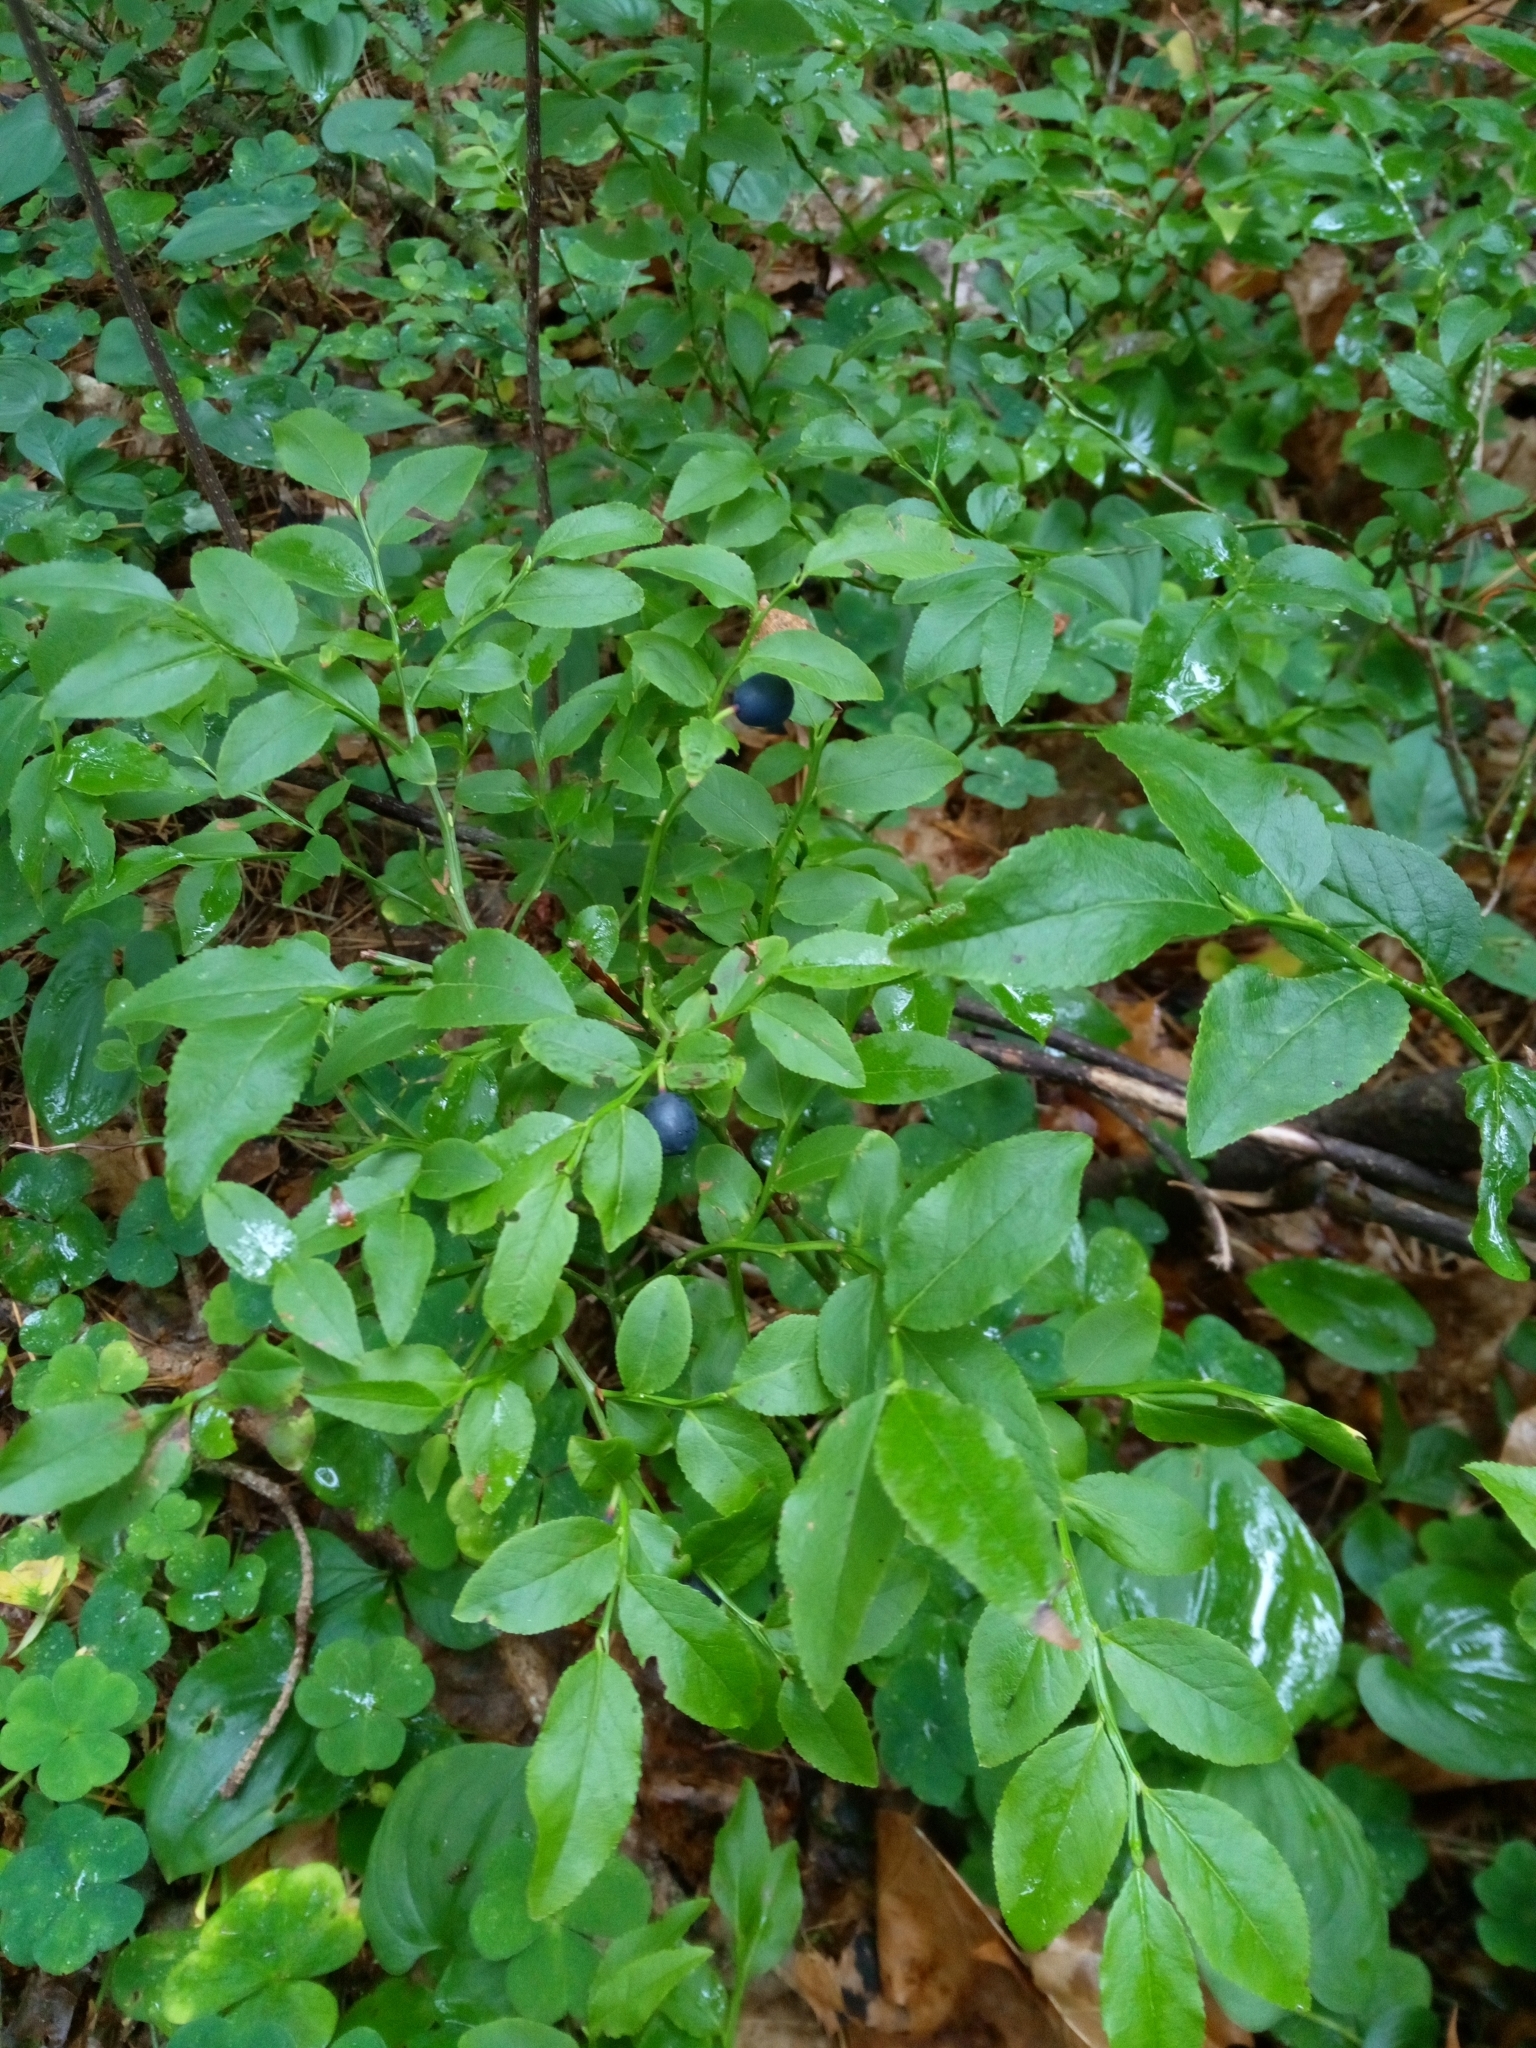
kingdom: Plantae
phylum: Tracheophyta
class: Magnoliopsida
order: Ericales
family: Ericaceae
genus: Vaccinium
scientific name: Vaccinium myrtillus
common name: Bilberry
